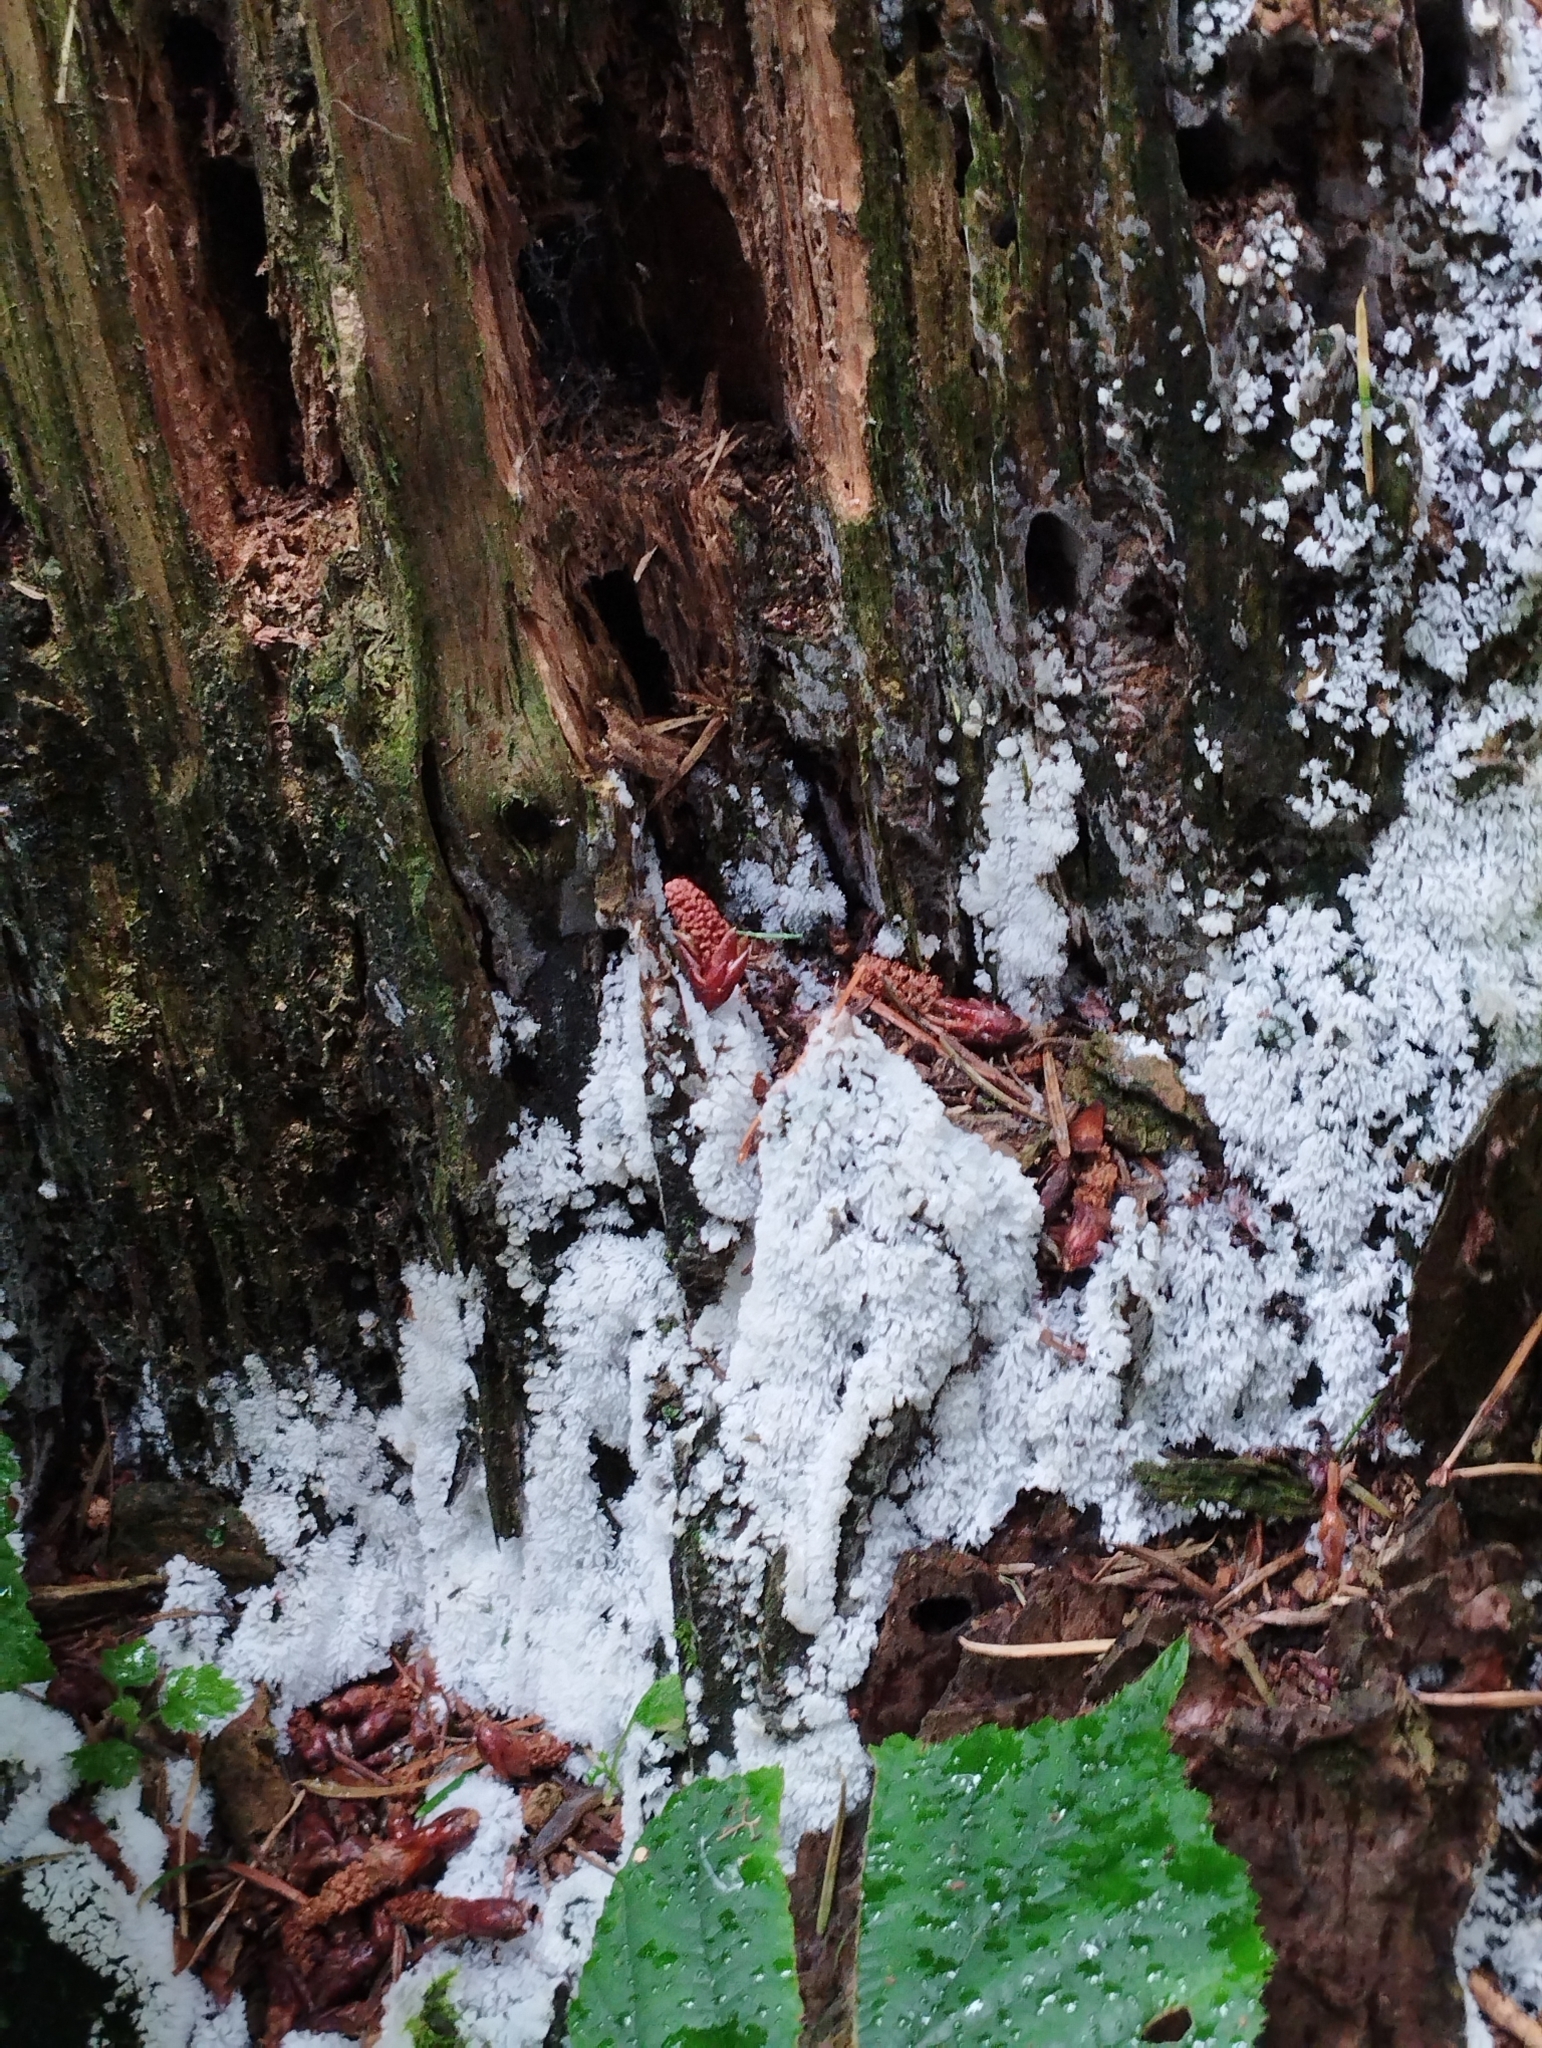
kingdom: Protozoa
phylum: Mycetozoa
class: Protosteliomycetes
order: Ceratiomyxales
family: Ceratiomyxaceae
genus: Ceratiomyxa
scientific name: Ceratiomyxa fruticulosa
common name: Honeycomb coral slime mold
